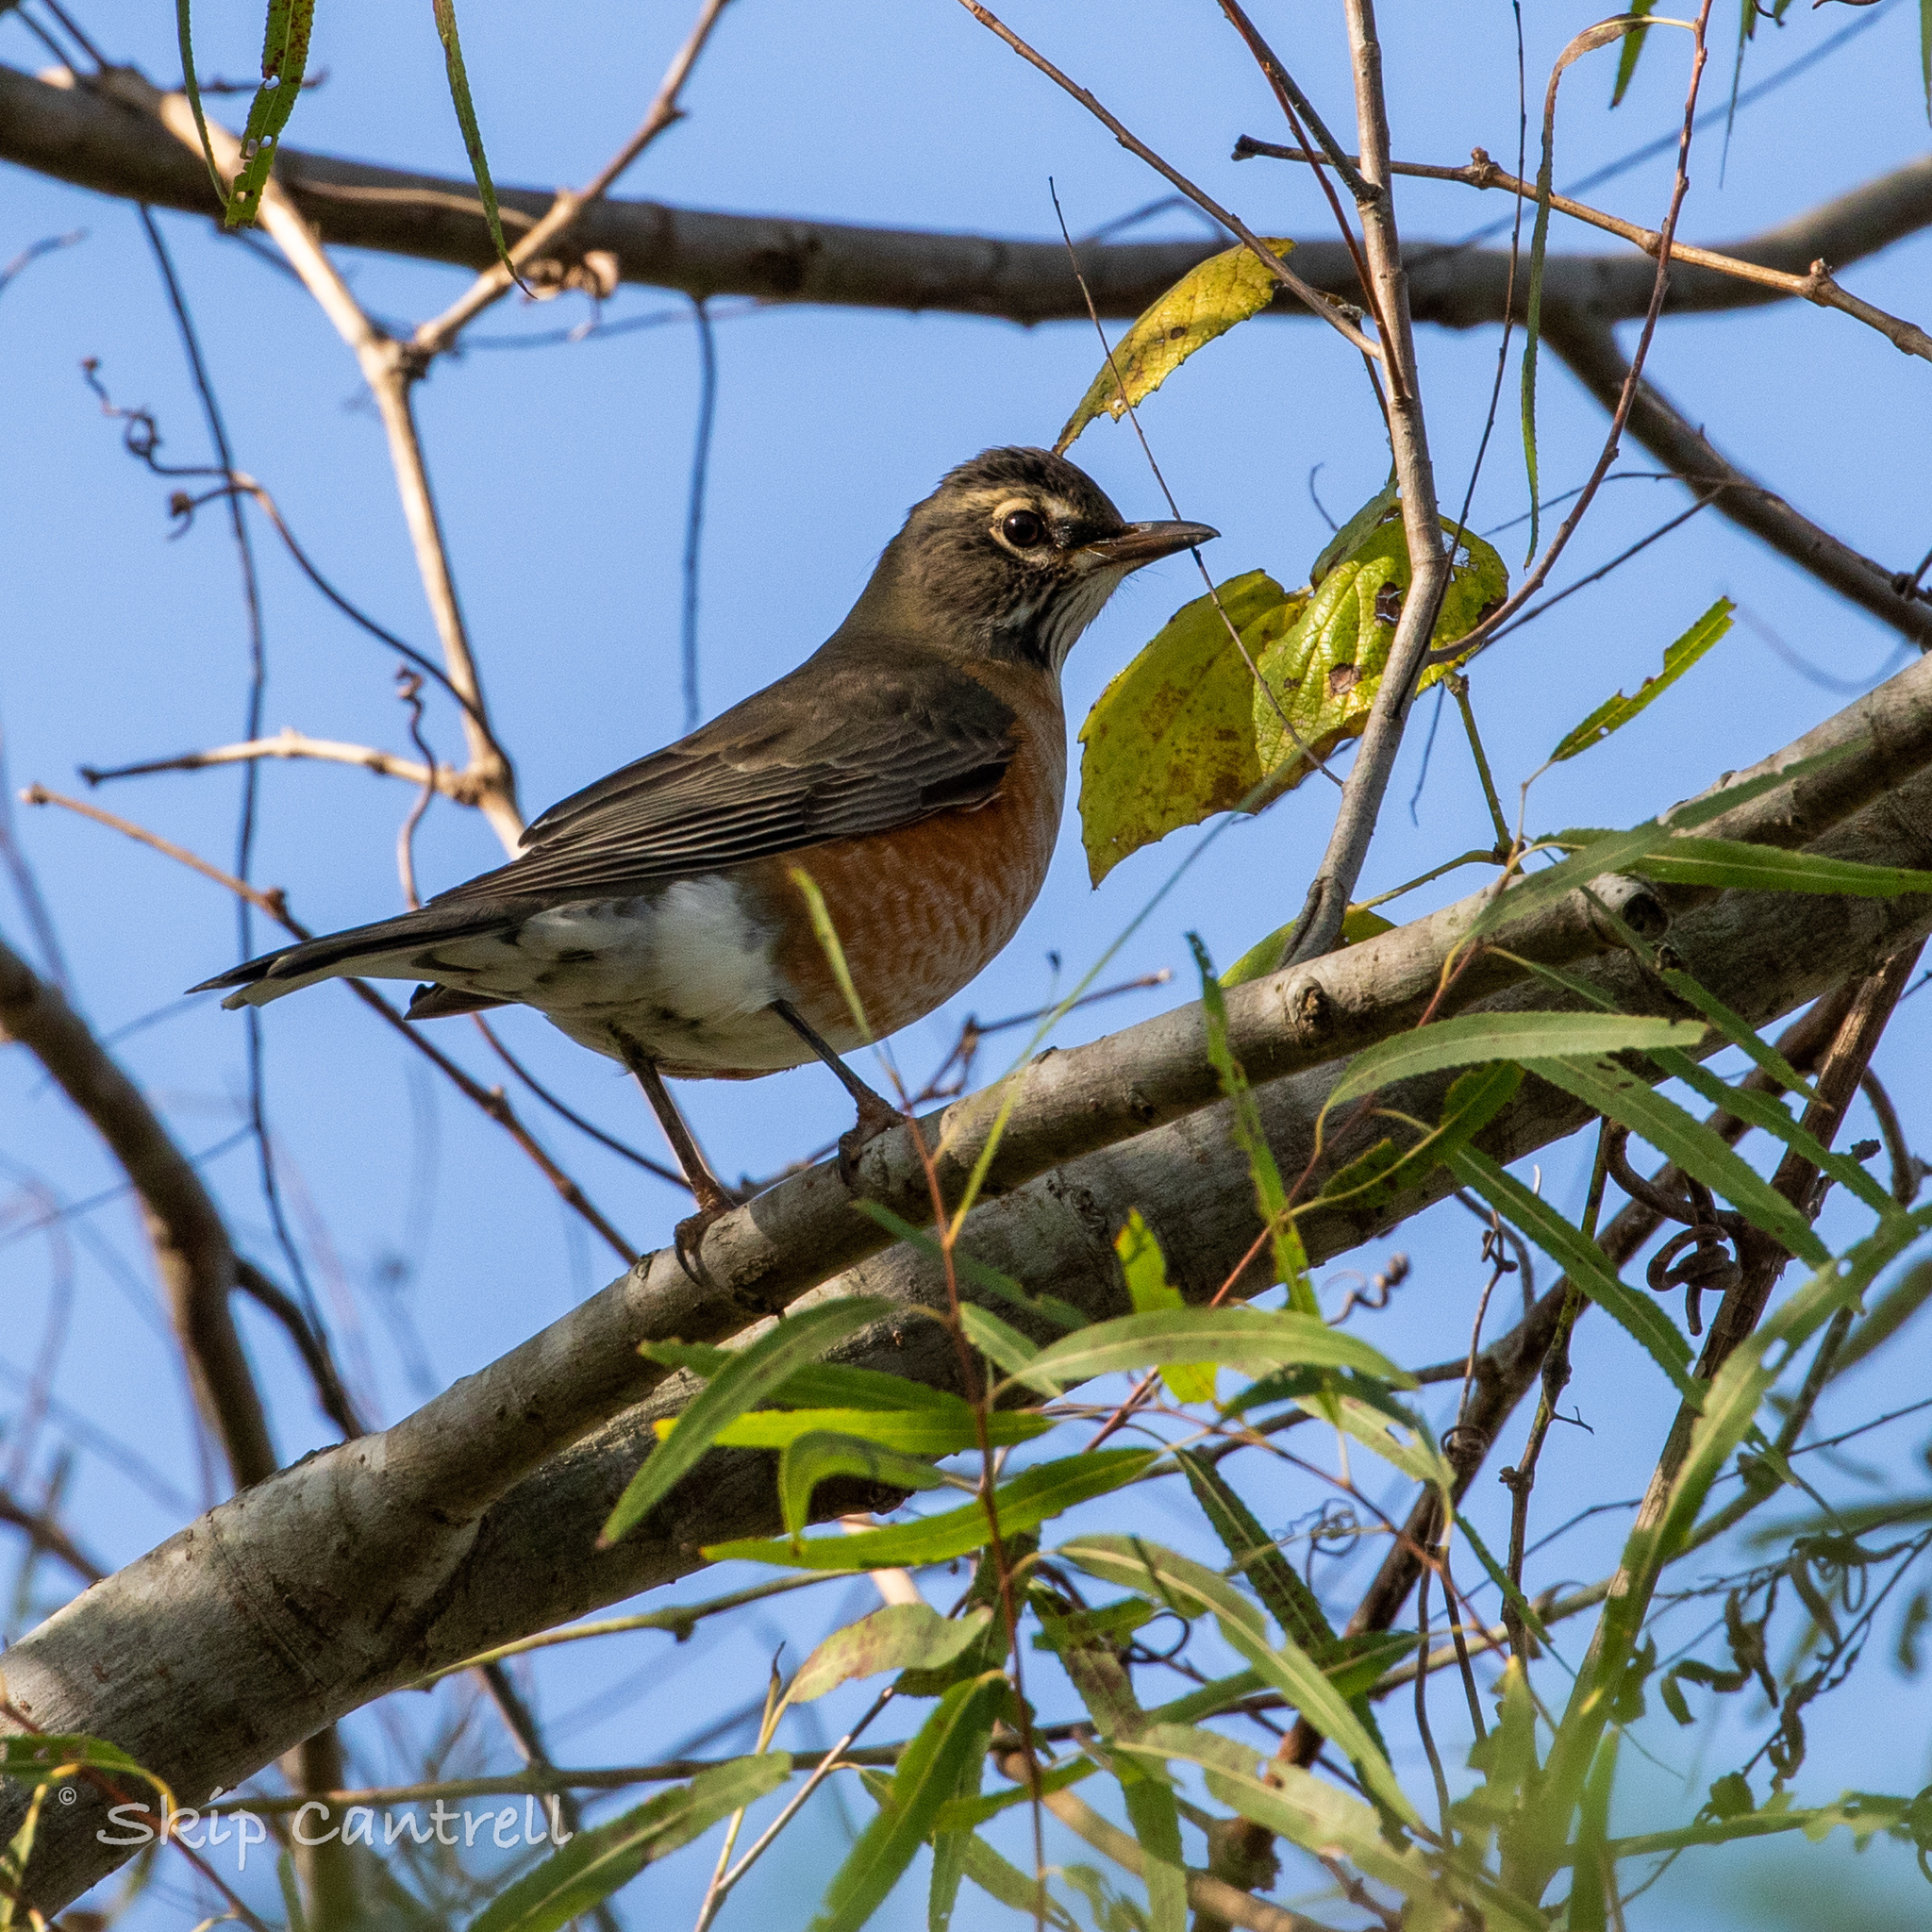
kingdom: Animalia
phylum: Chordata
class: Aves
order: Passeriformes
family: Turdidae
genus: Turdus
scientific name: Turdus migratorius
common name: American robin
